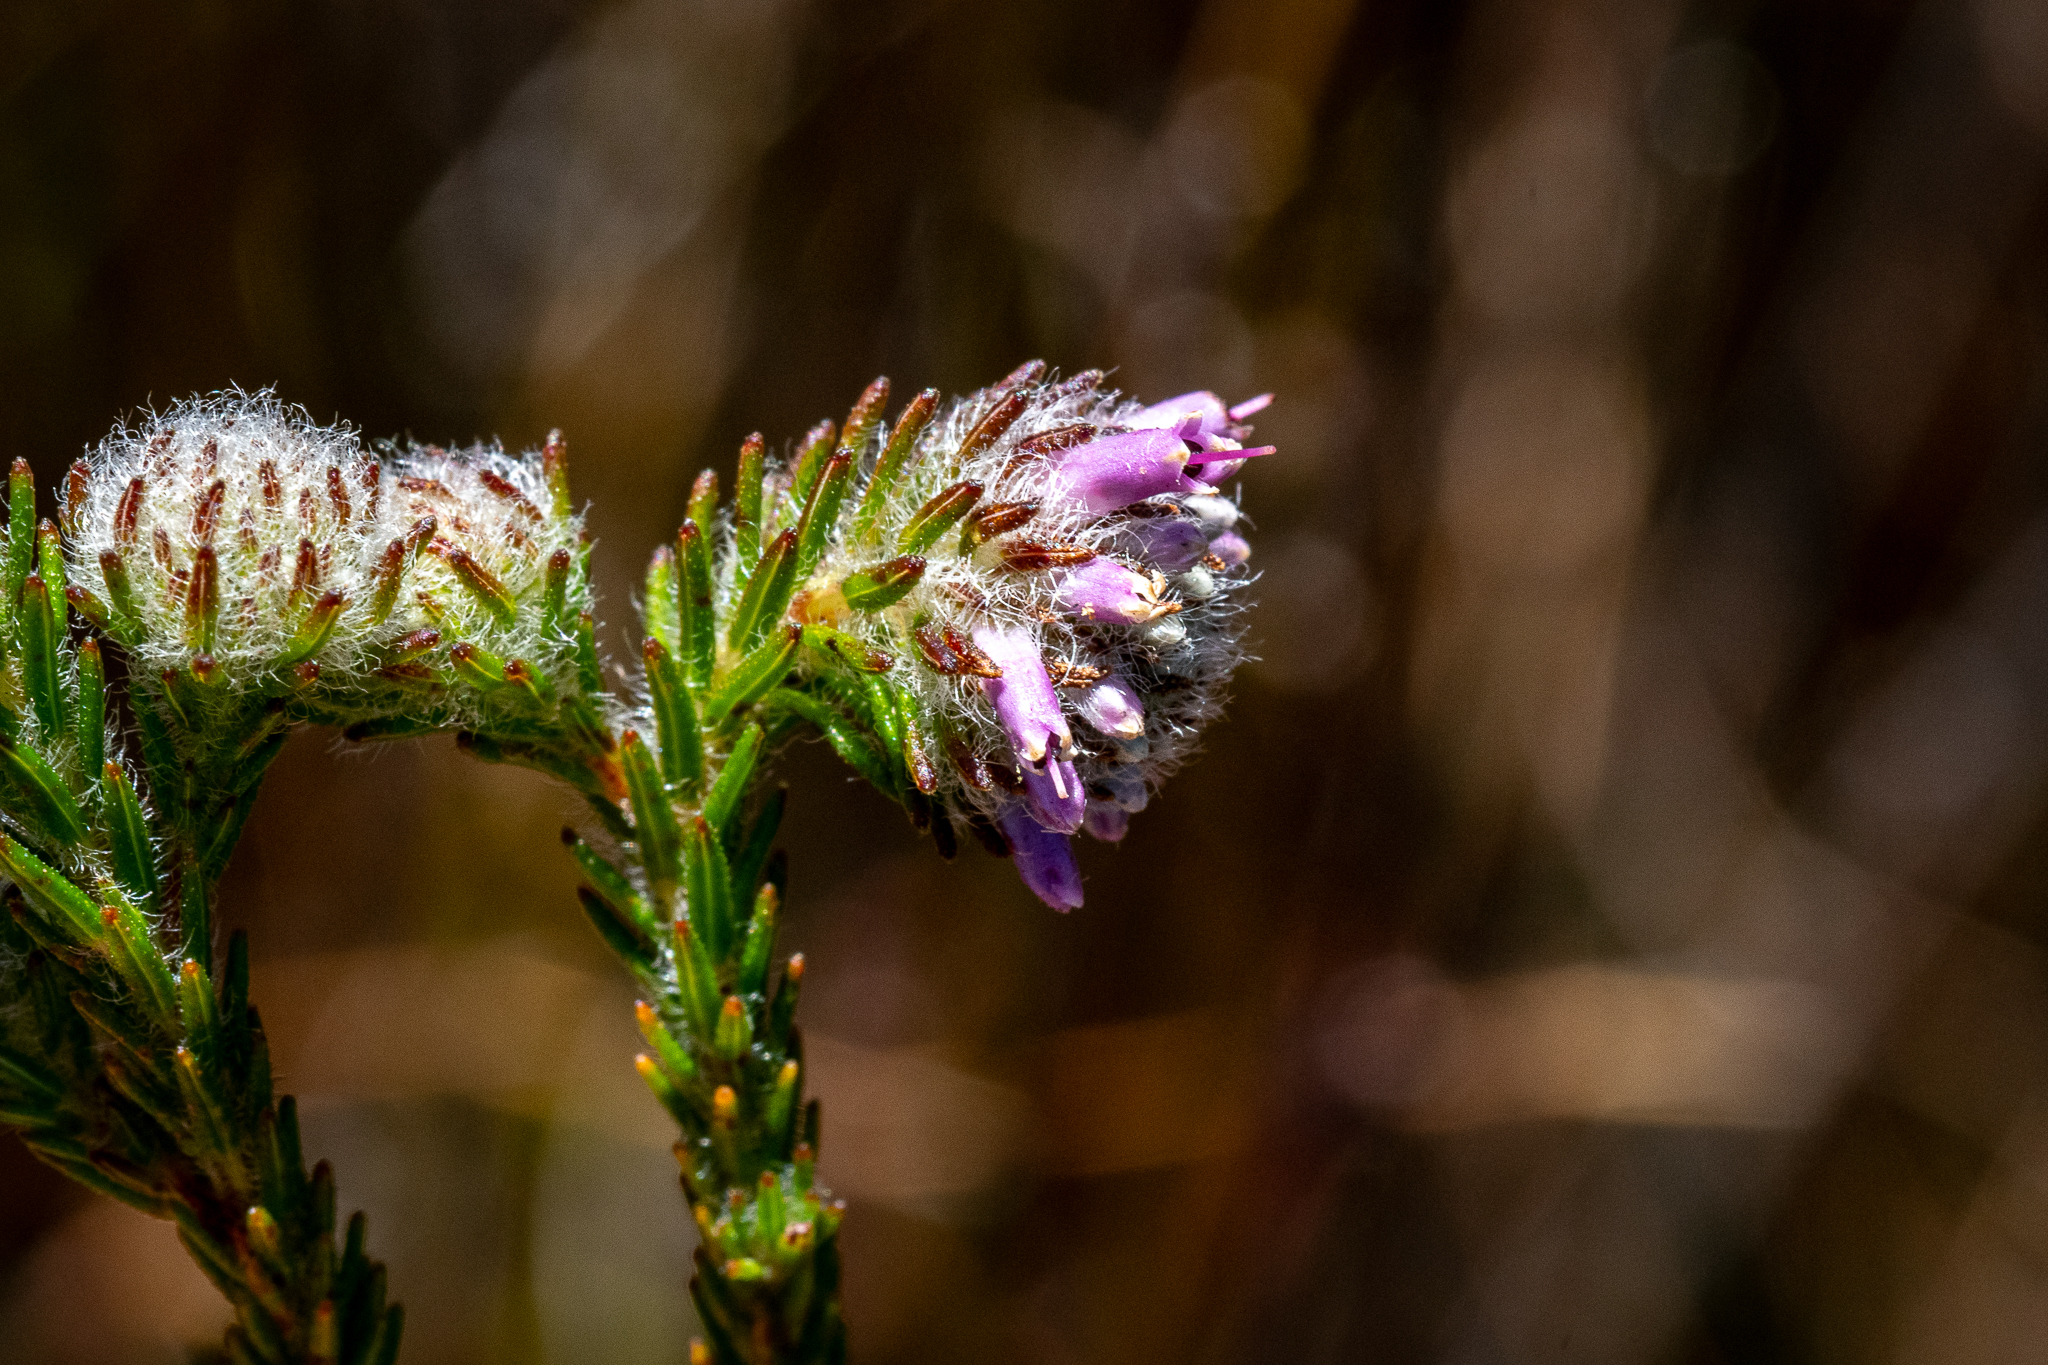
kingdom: Plantae
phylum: Tracheophyta
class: Magnoliopsida
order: Ericales
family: Ericaceae
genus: Erica
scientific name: Erica barbigeroides
